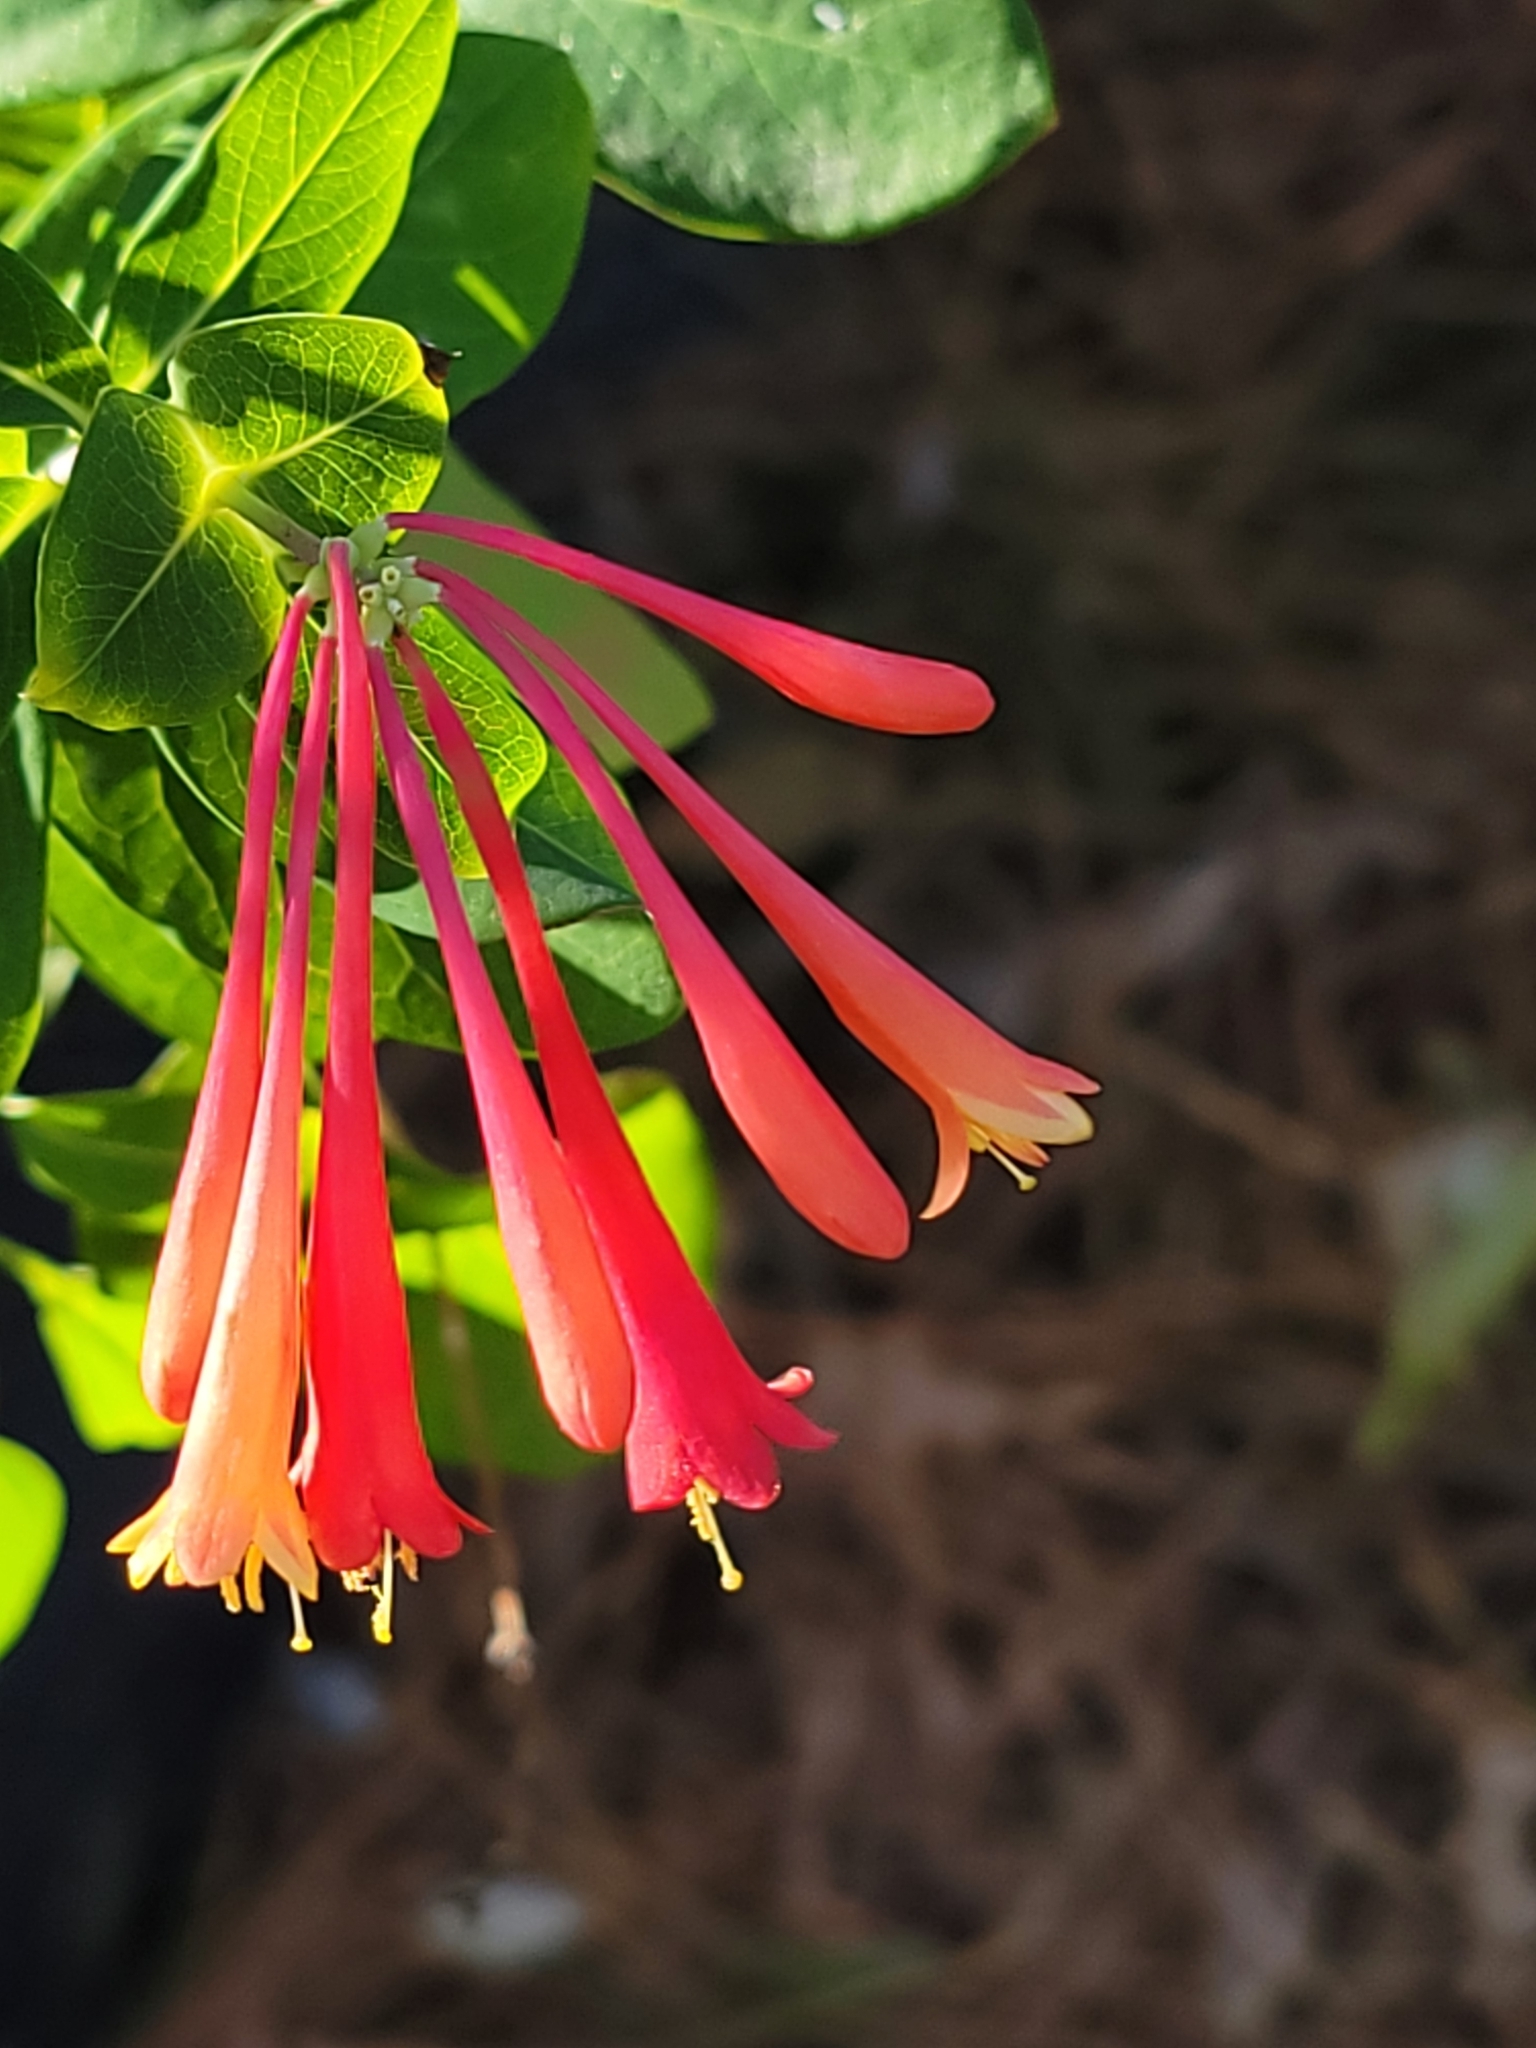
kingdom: Plantae
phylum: Tracheophyta
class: Magnoliopsida
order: Dipsacales
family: Caprifoliaceae
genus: Lonicera
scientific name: Lonicera sempervirens
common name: Coral honeysuckle
